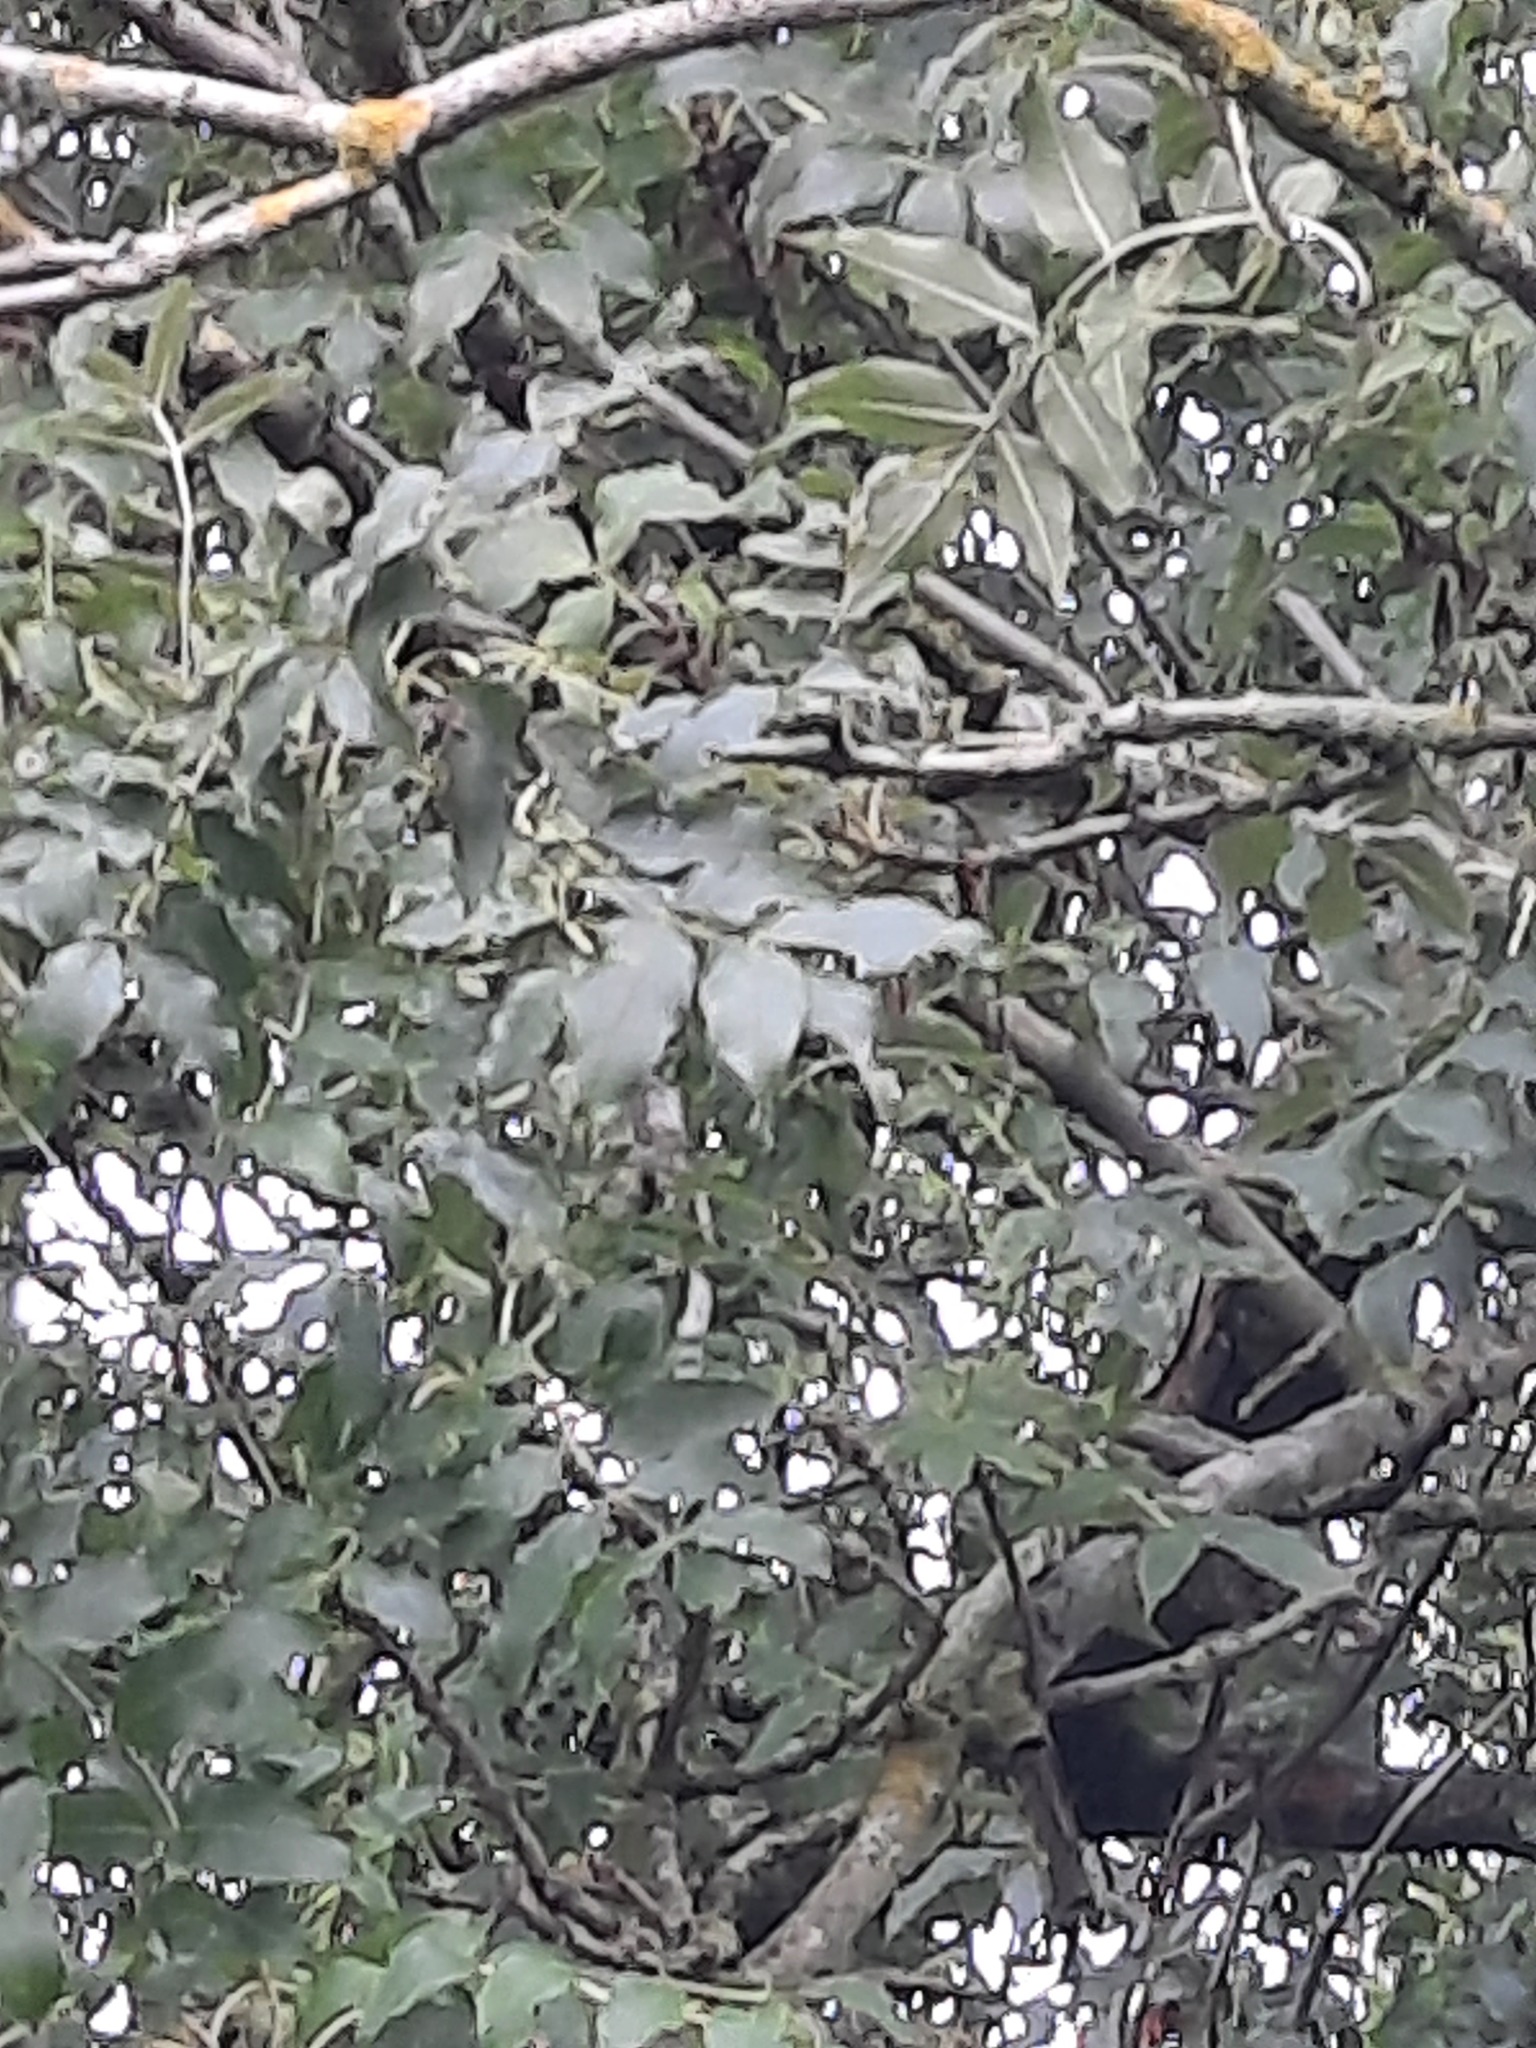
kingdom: Plantae
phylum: Tracheophyta
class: Magnoliopsida
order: Lamiales
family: Oleaceae
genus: Fraxinus
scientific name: Fraxinus excelsior
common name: European ash
